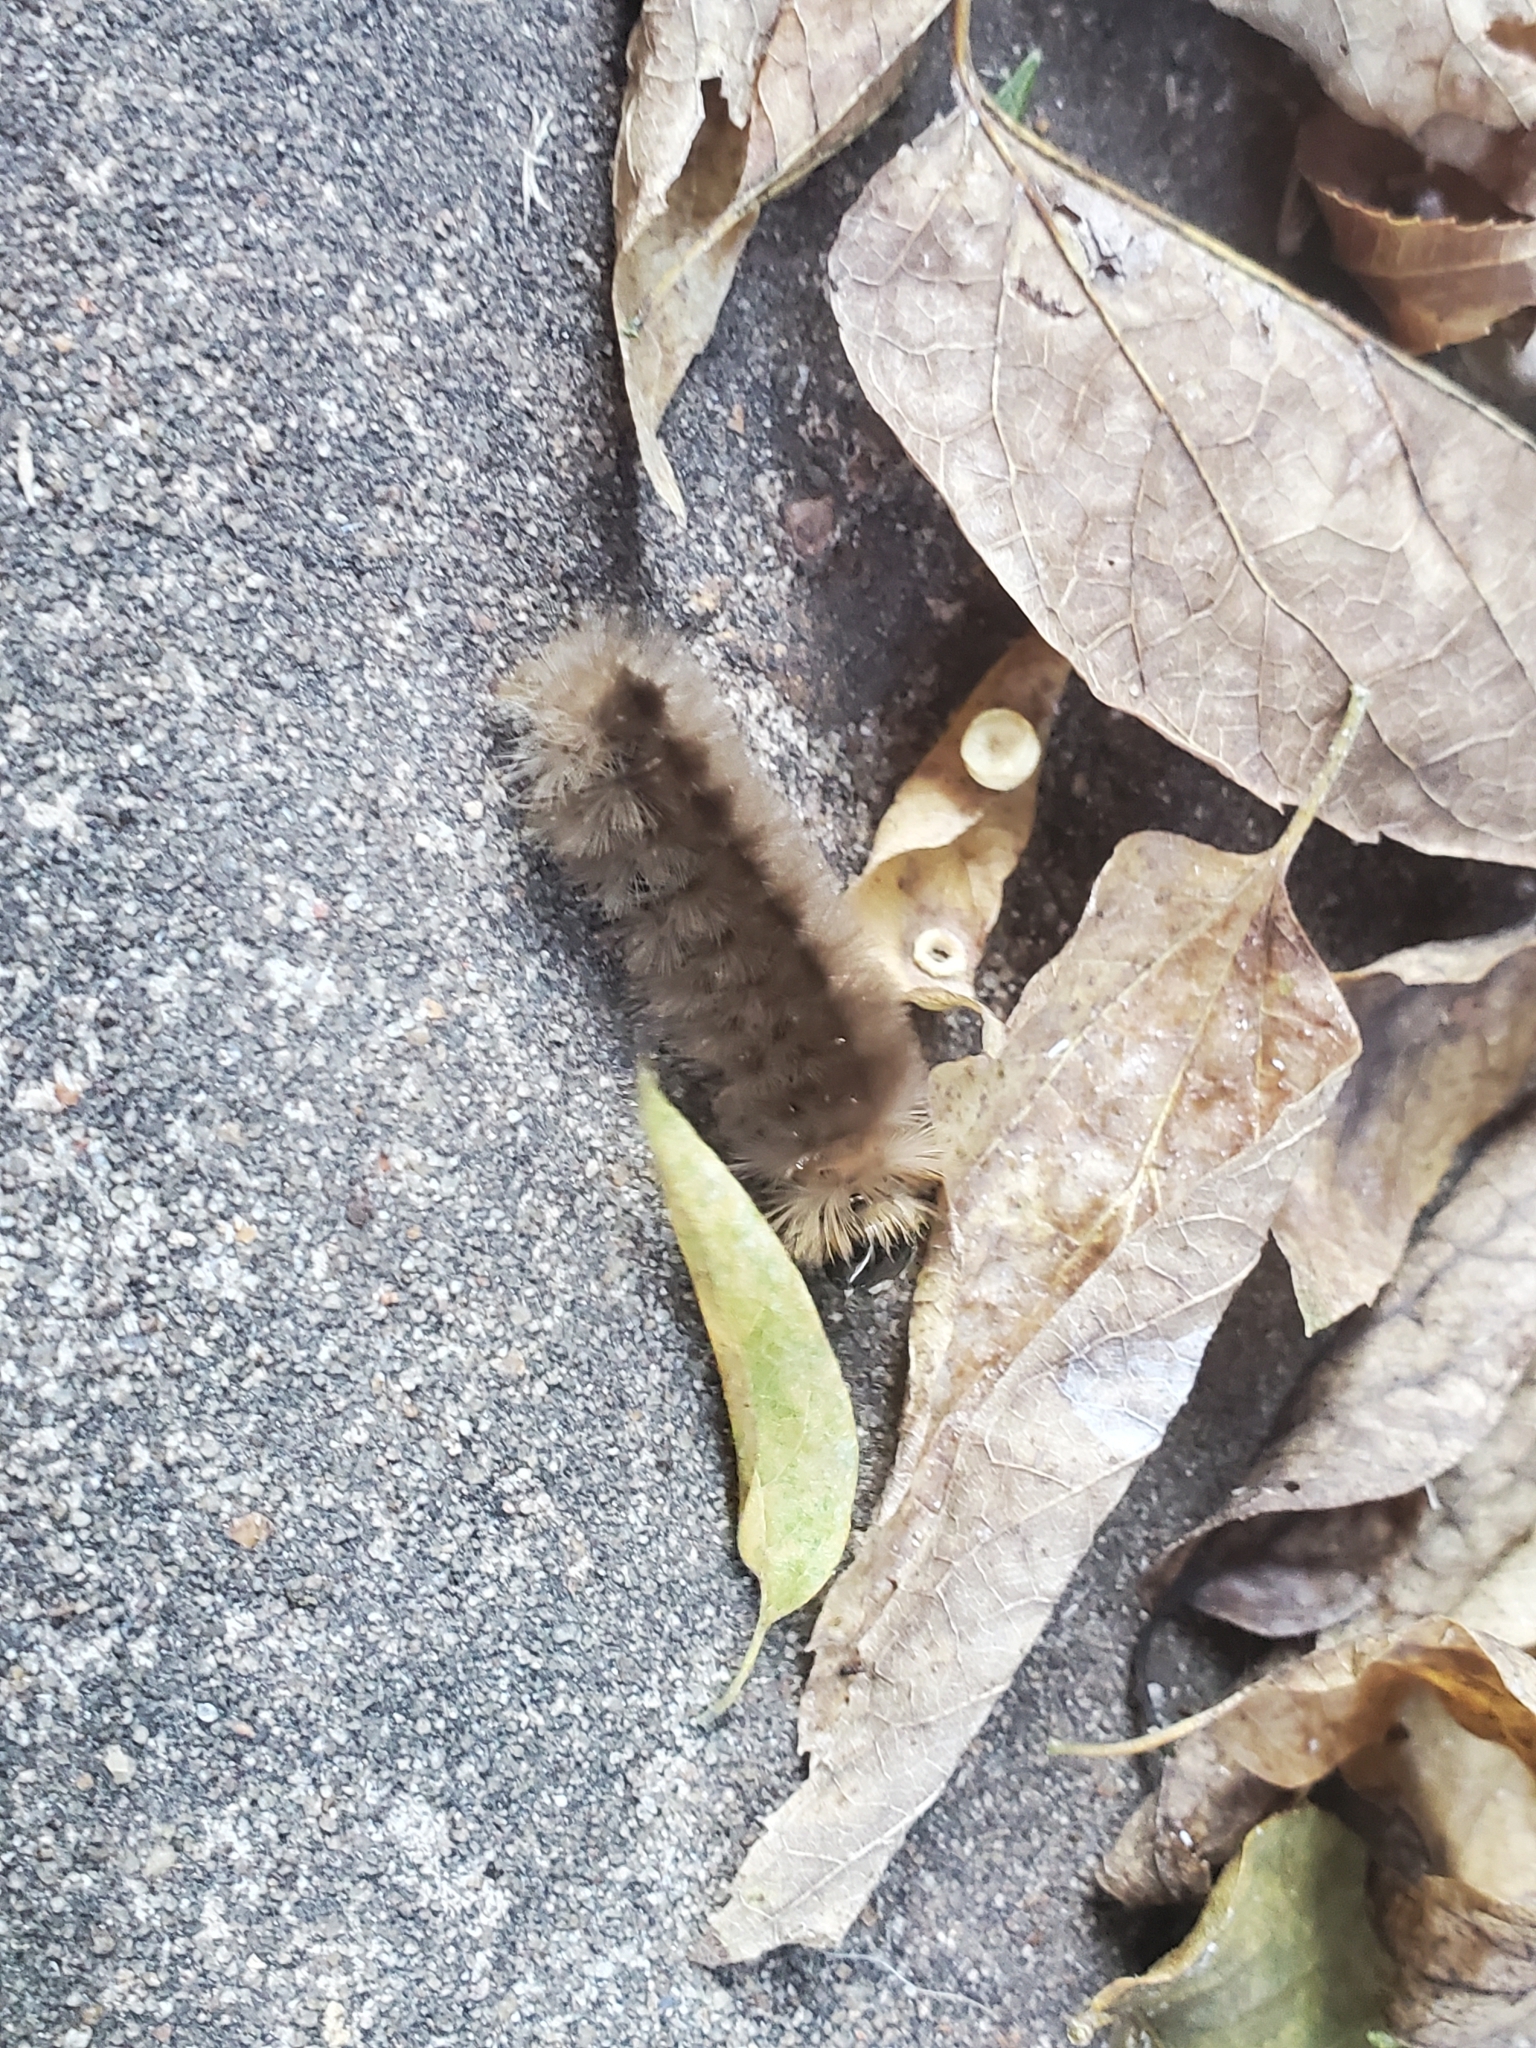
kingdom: Animalia
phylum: Arthropoda
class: Insecta
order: Lepidoptera
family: Erebidae
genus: Halysidota
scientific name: Halysidota tessellaris
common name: Banded tussock moth
